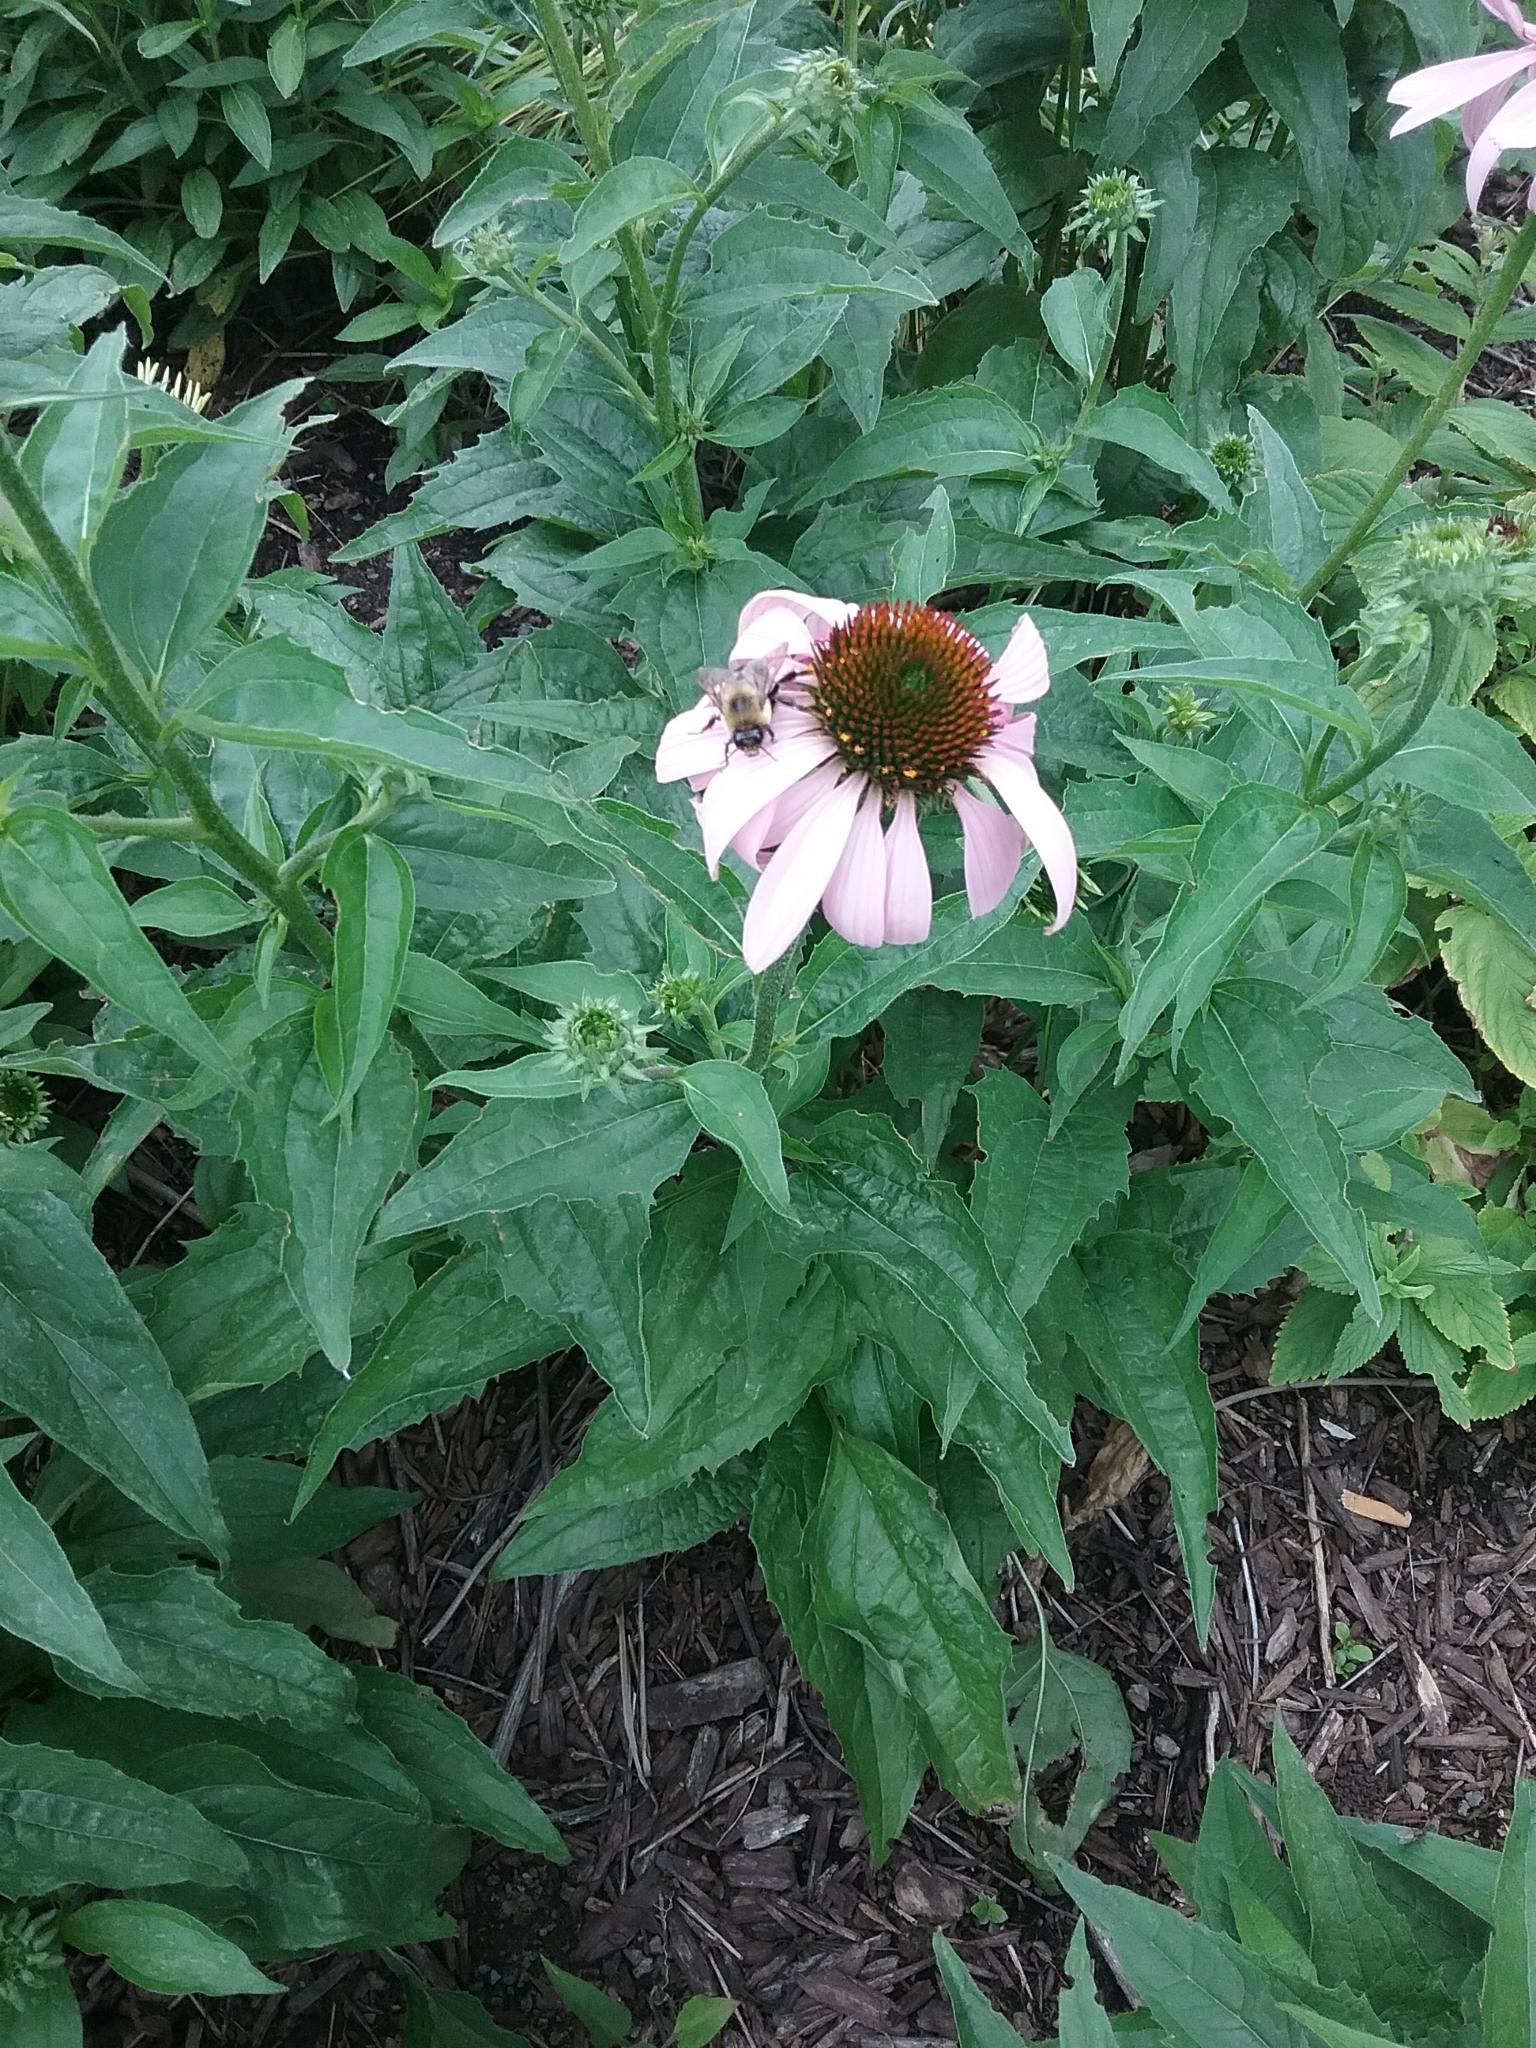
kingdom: Animalia
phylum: Arthropoda
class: Insecta
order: Hymenoptera
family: Apidae
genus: Bombus
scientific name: Bombus griseocollis
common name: Brown-belted bumble bee
